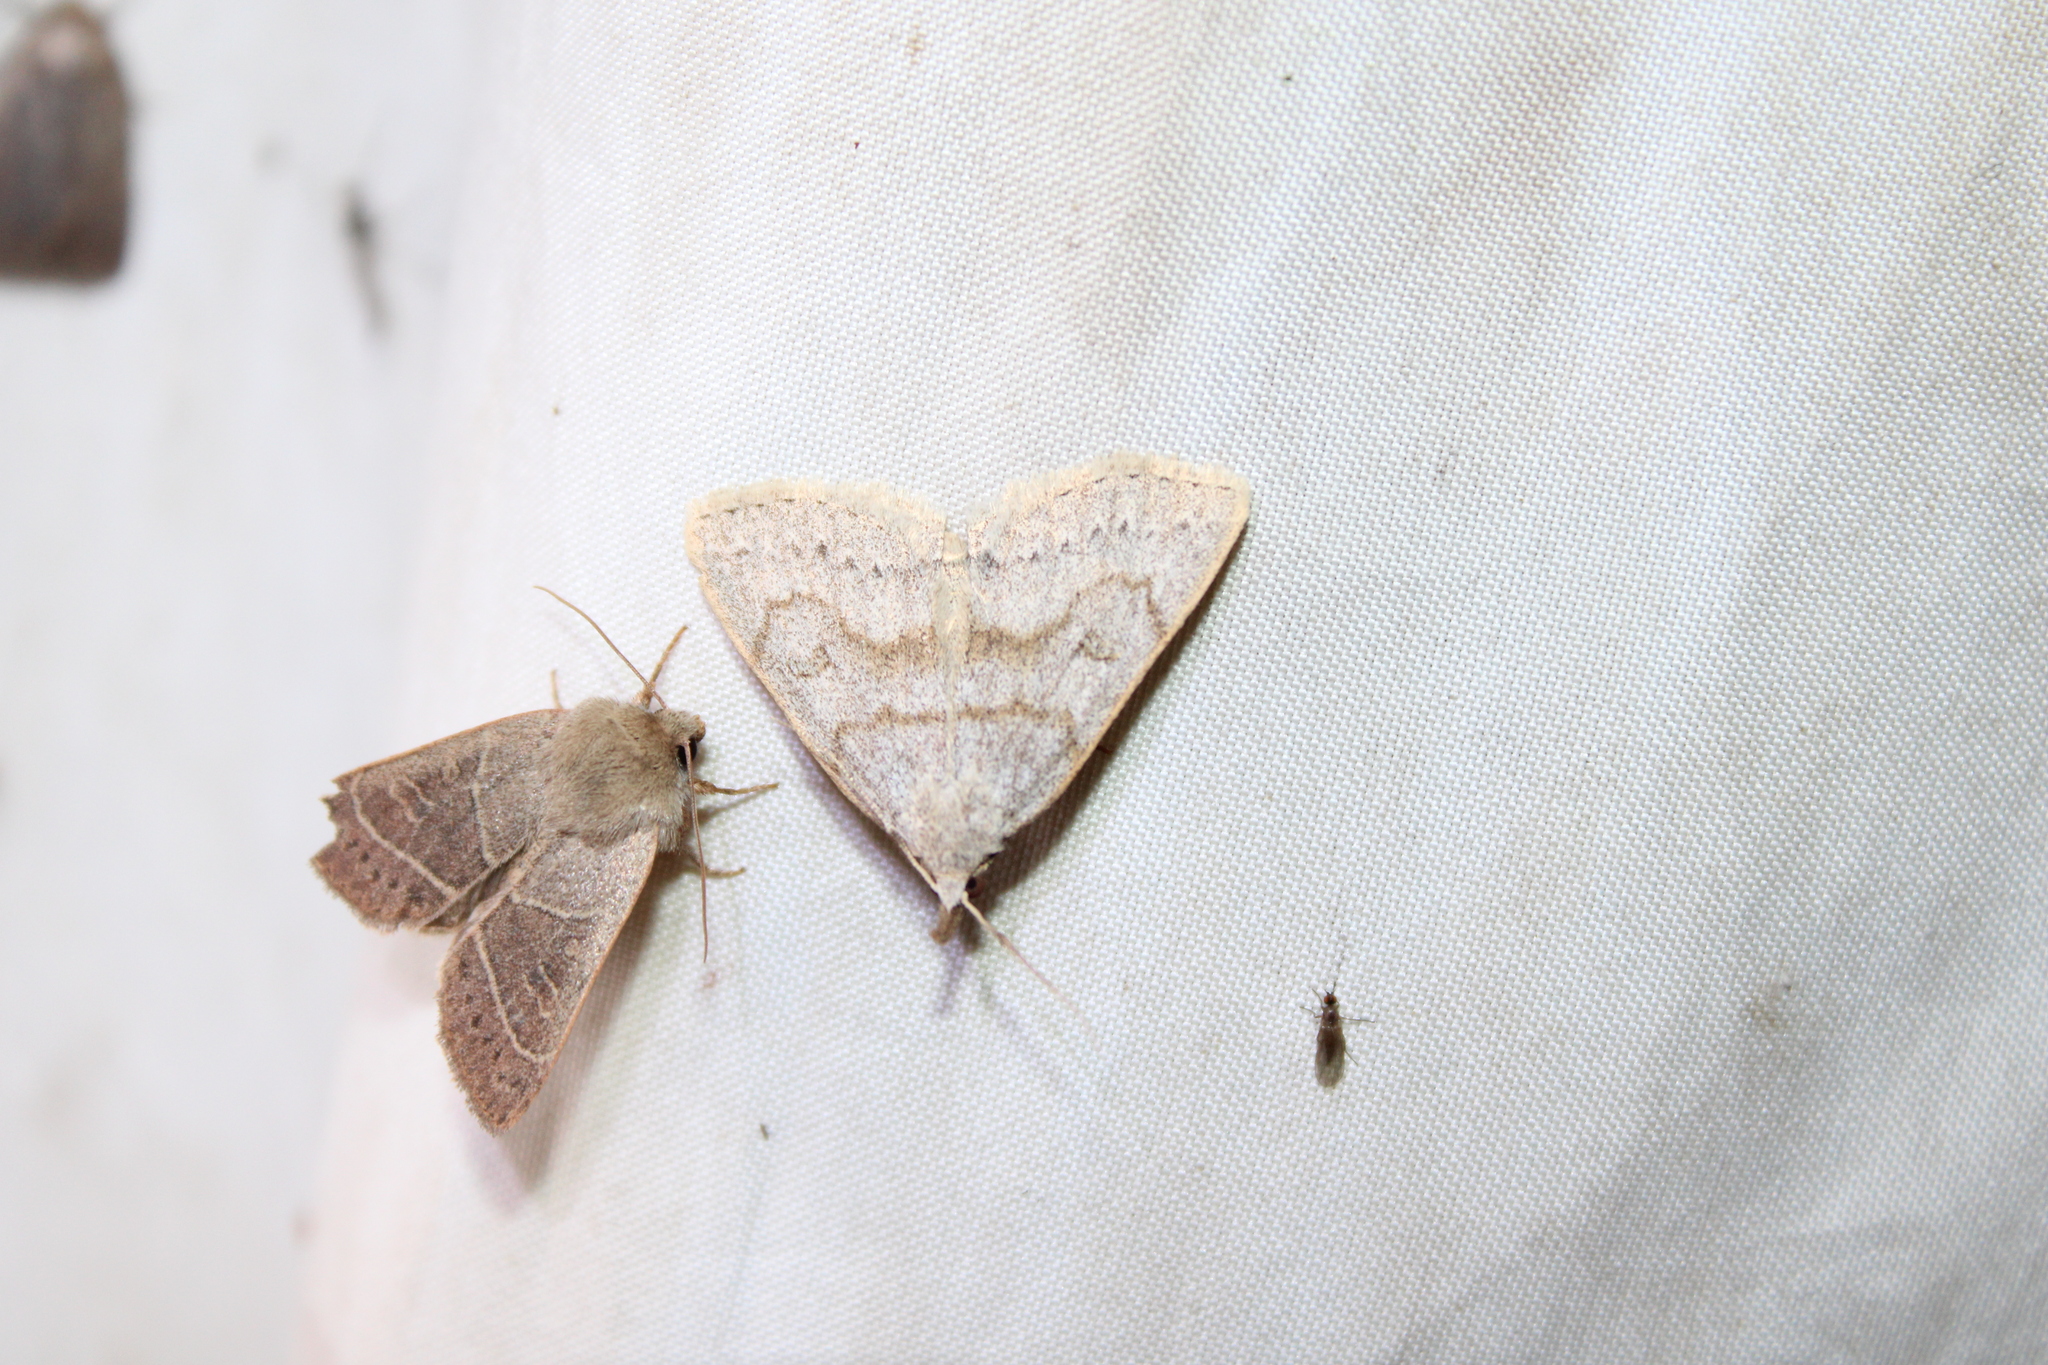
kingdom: Animalia
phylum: Arthropoda
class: Insecta
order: Lepidoptera
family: Erebidae
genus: Macrochilo
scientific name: Macrochilo morbidalis
